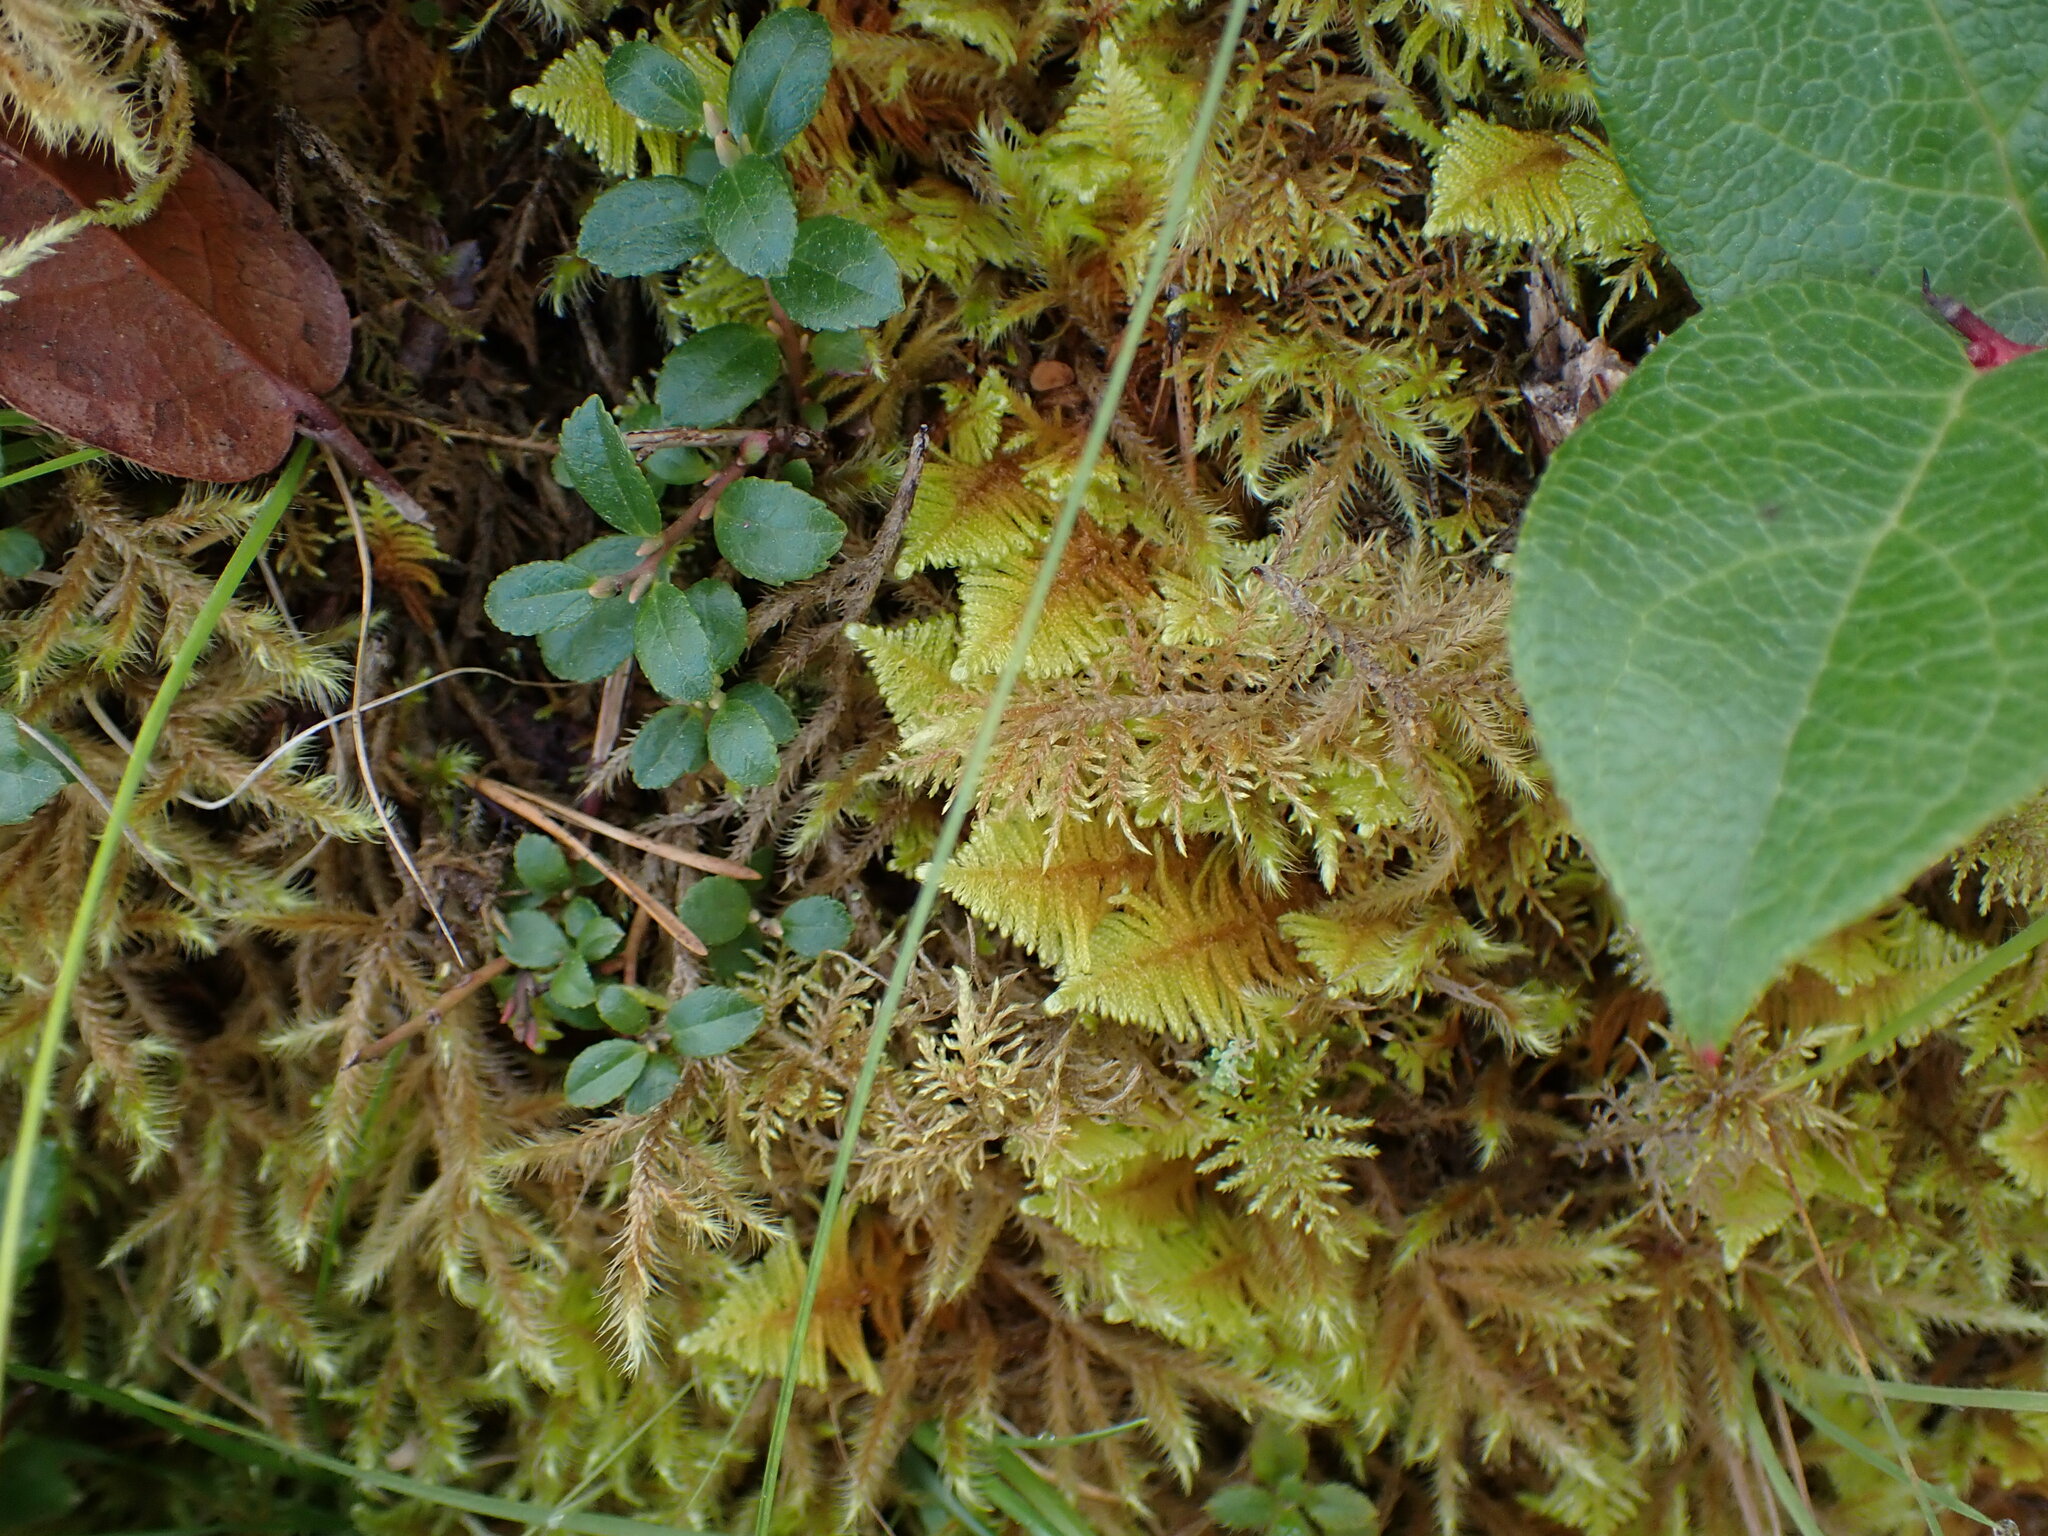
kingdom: Plantae
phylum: Bryophyta
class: Bryopsida
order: Hypnales
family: Pylaisiaceae
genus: Ptilium
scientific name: Ptilium crista-castrensis
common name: Knight's plume moss
